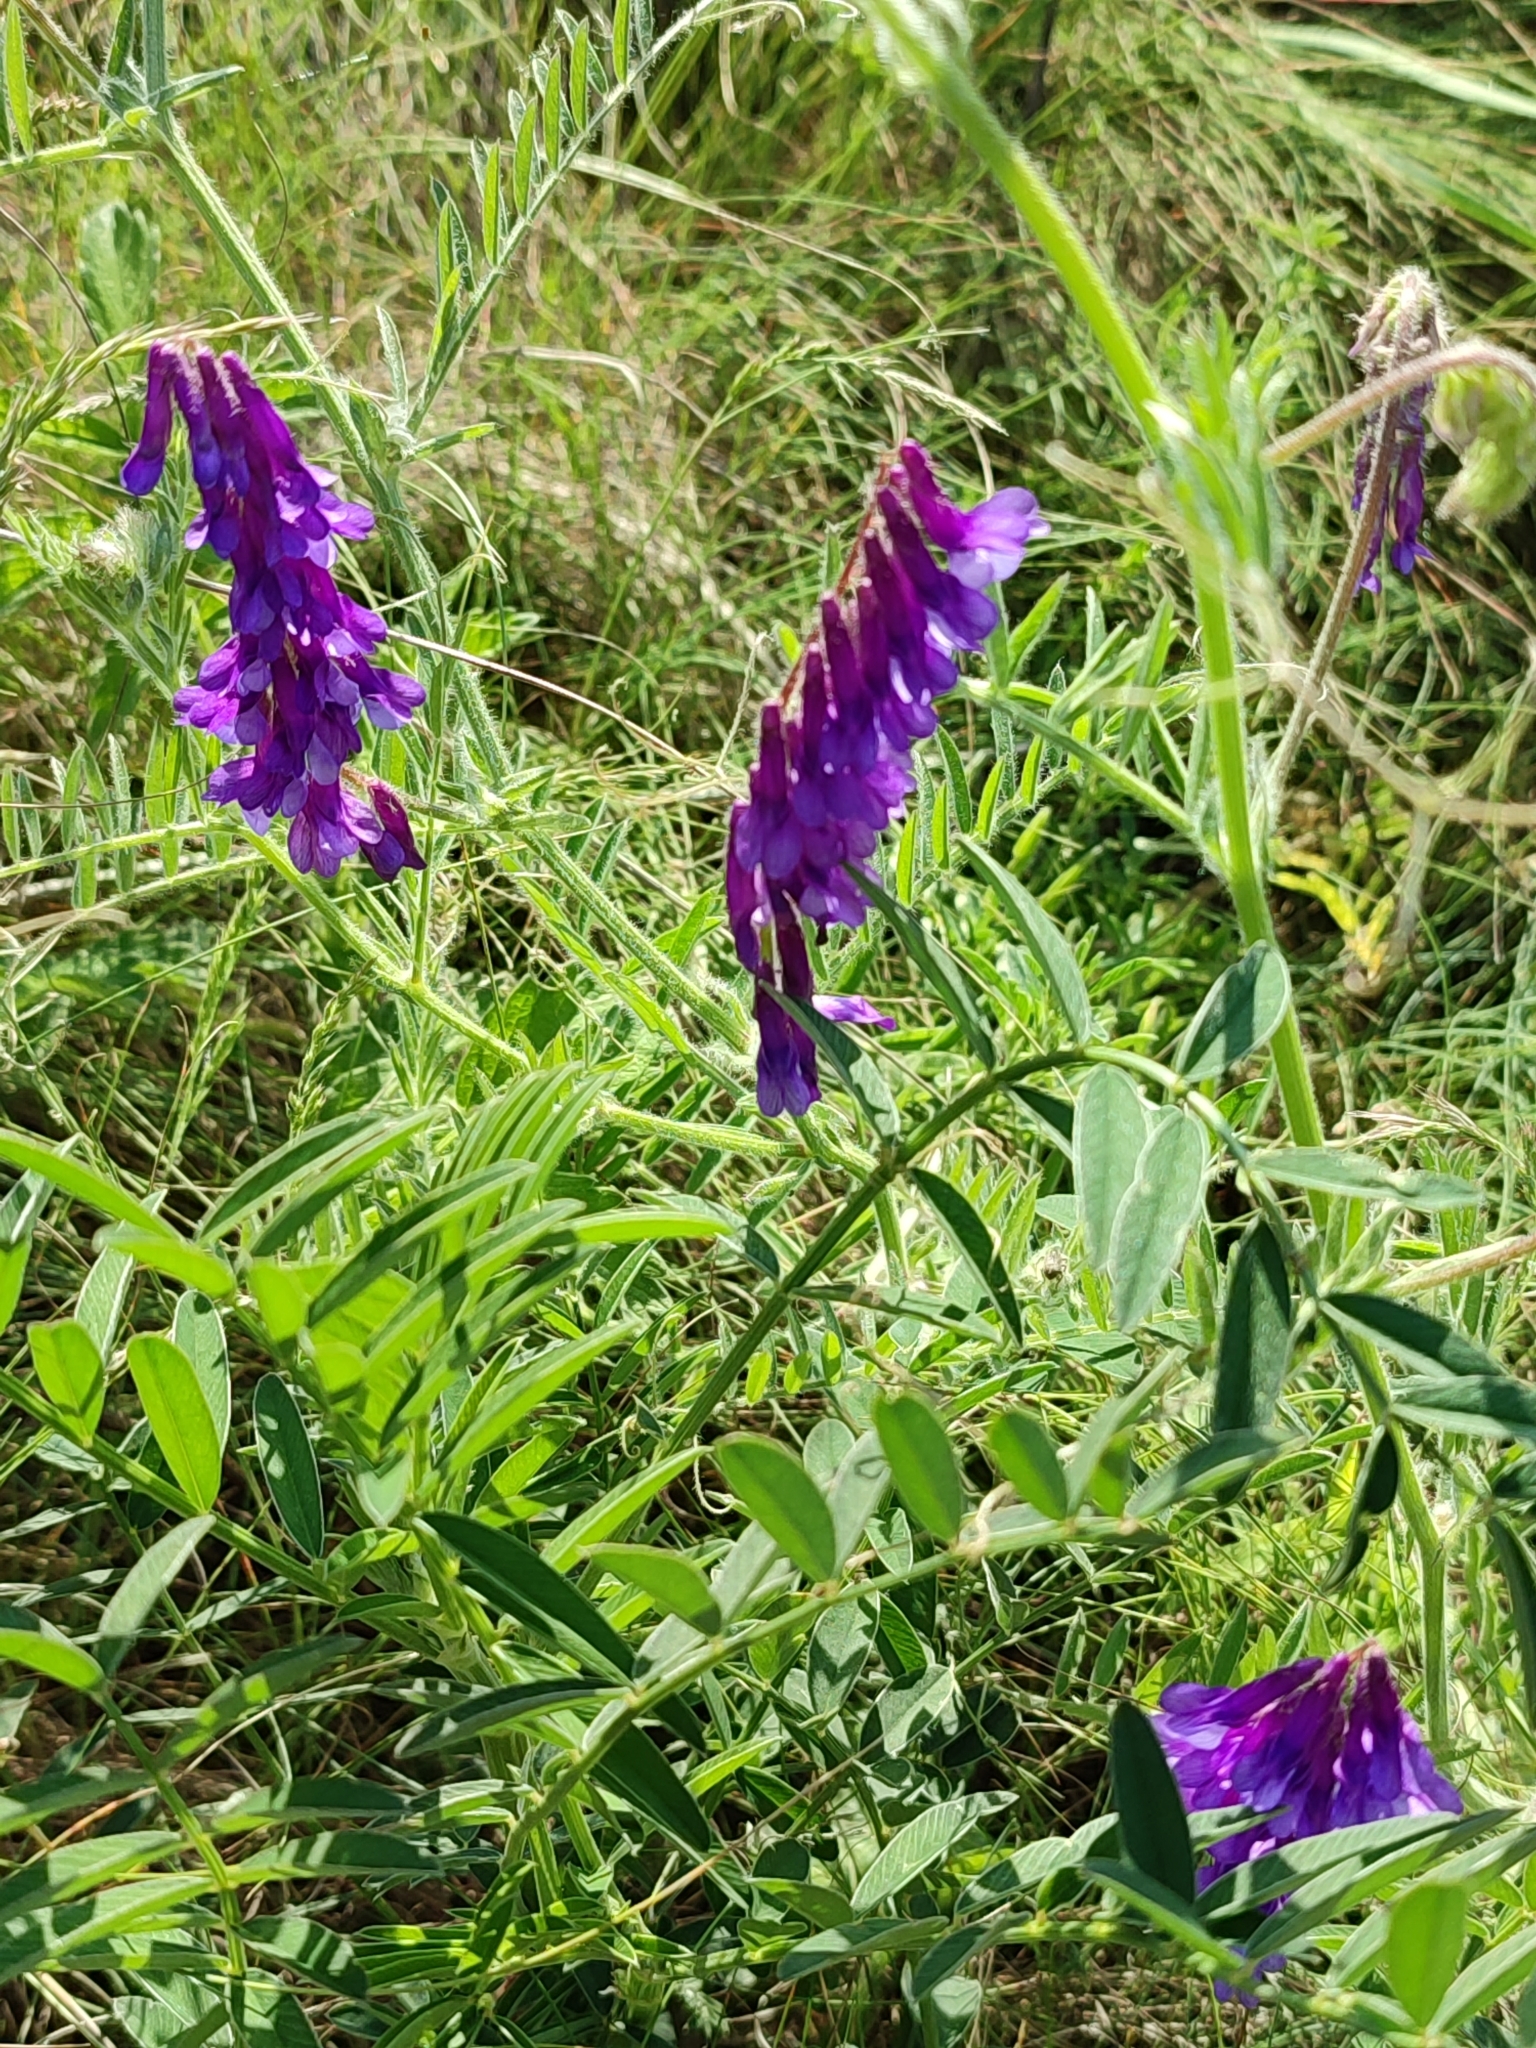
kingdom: Plantae
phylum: Tracheophyta
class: Magnoliopsida
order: Fabales
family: Fabaceae
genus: Vicia
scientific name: Vicia villosa
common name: Fodder vetch
